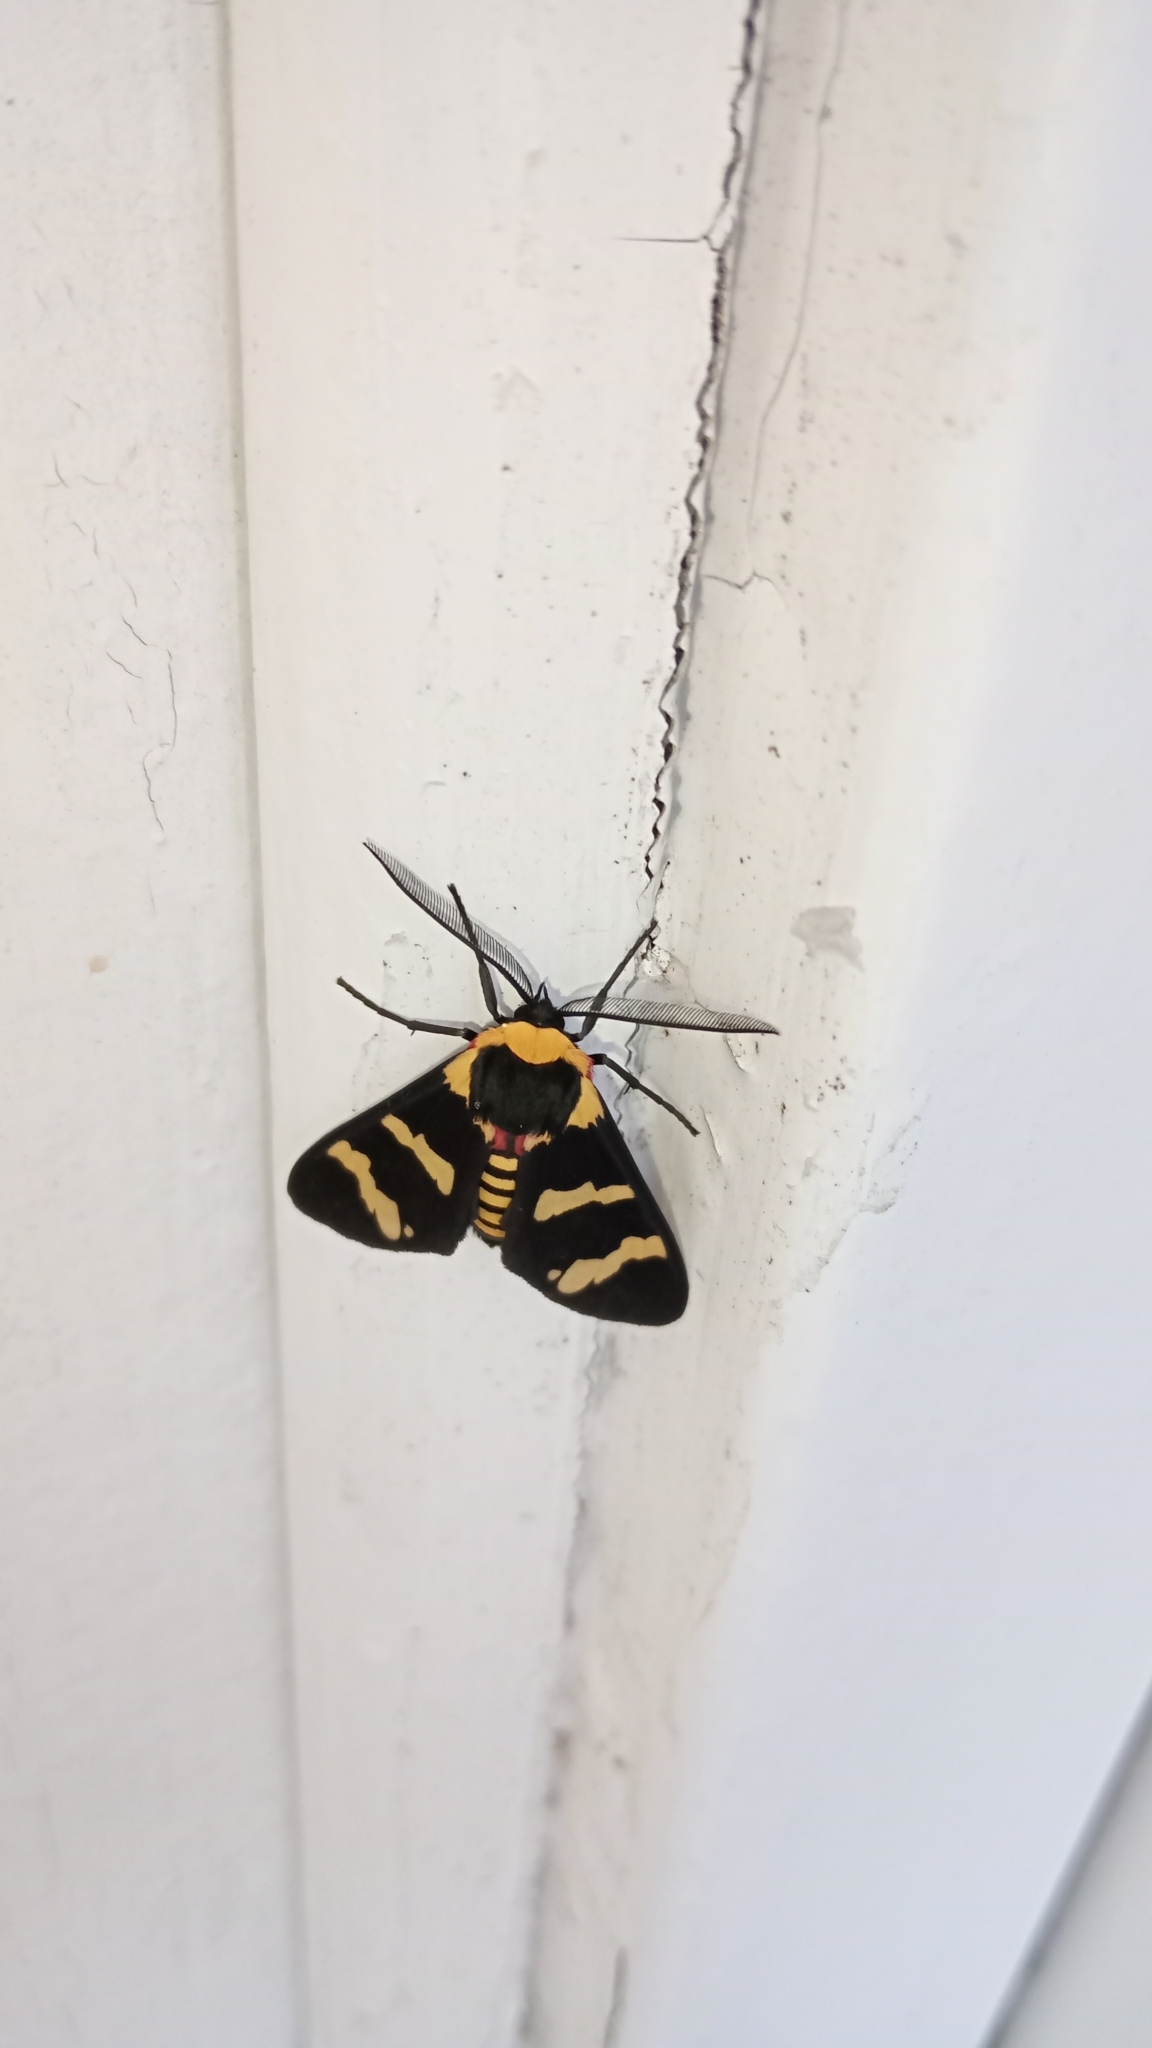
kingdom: Animalia
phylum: Arthropoda
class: Insecta
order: Lepidoptera
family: Erebidae
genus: Eurata
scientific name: Eurata hilaris
